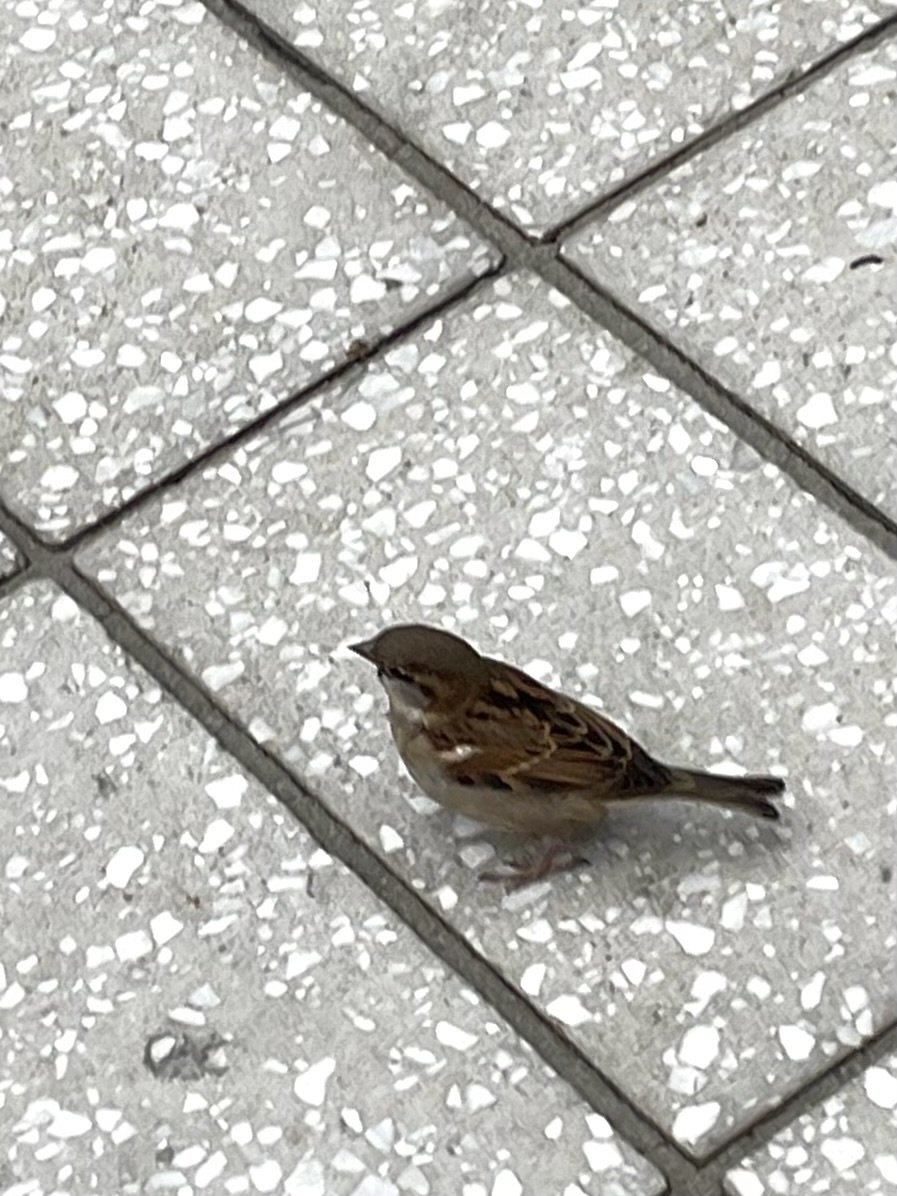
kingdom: Animalia
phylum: Chordata
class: Aves
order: Passeriformes
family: Passeridae
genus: Passer
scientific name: Passer domesticus
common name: House sparrow
